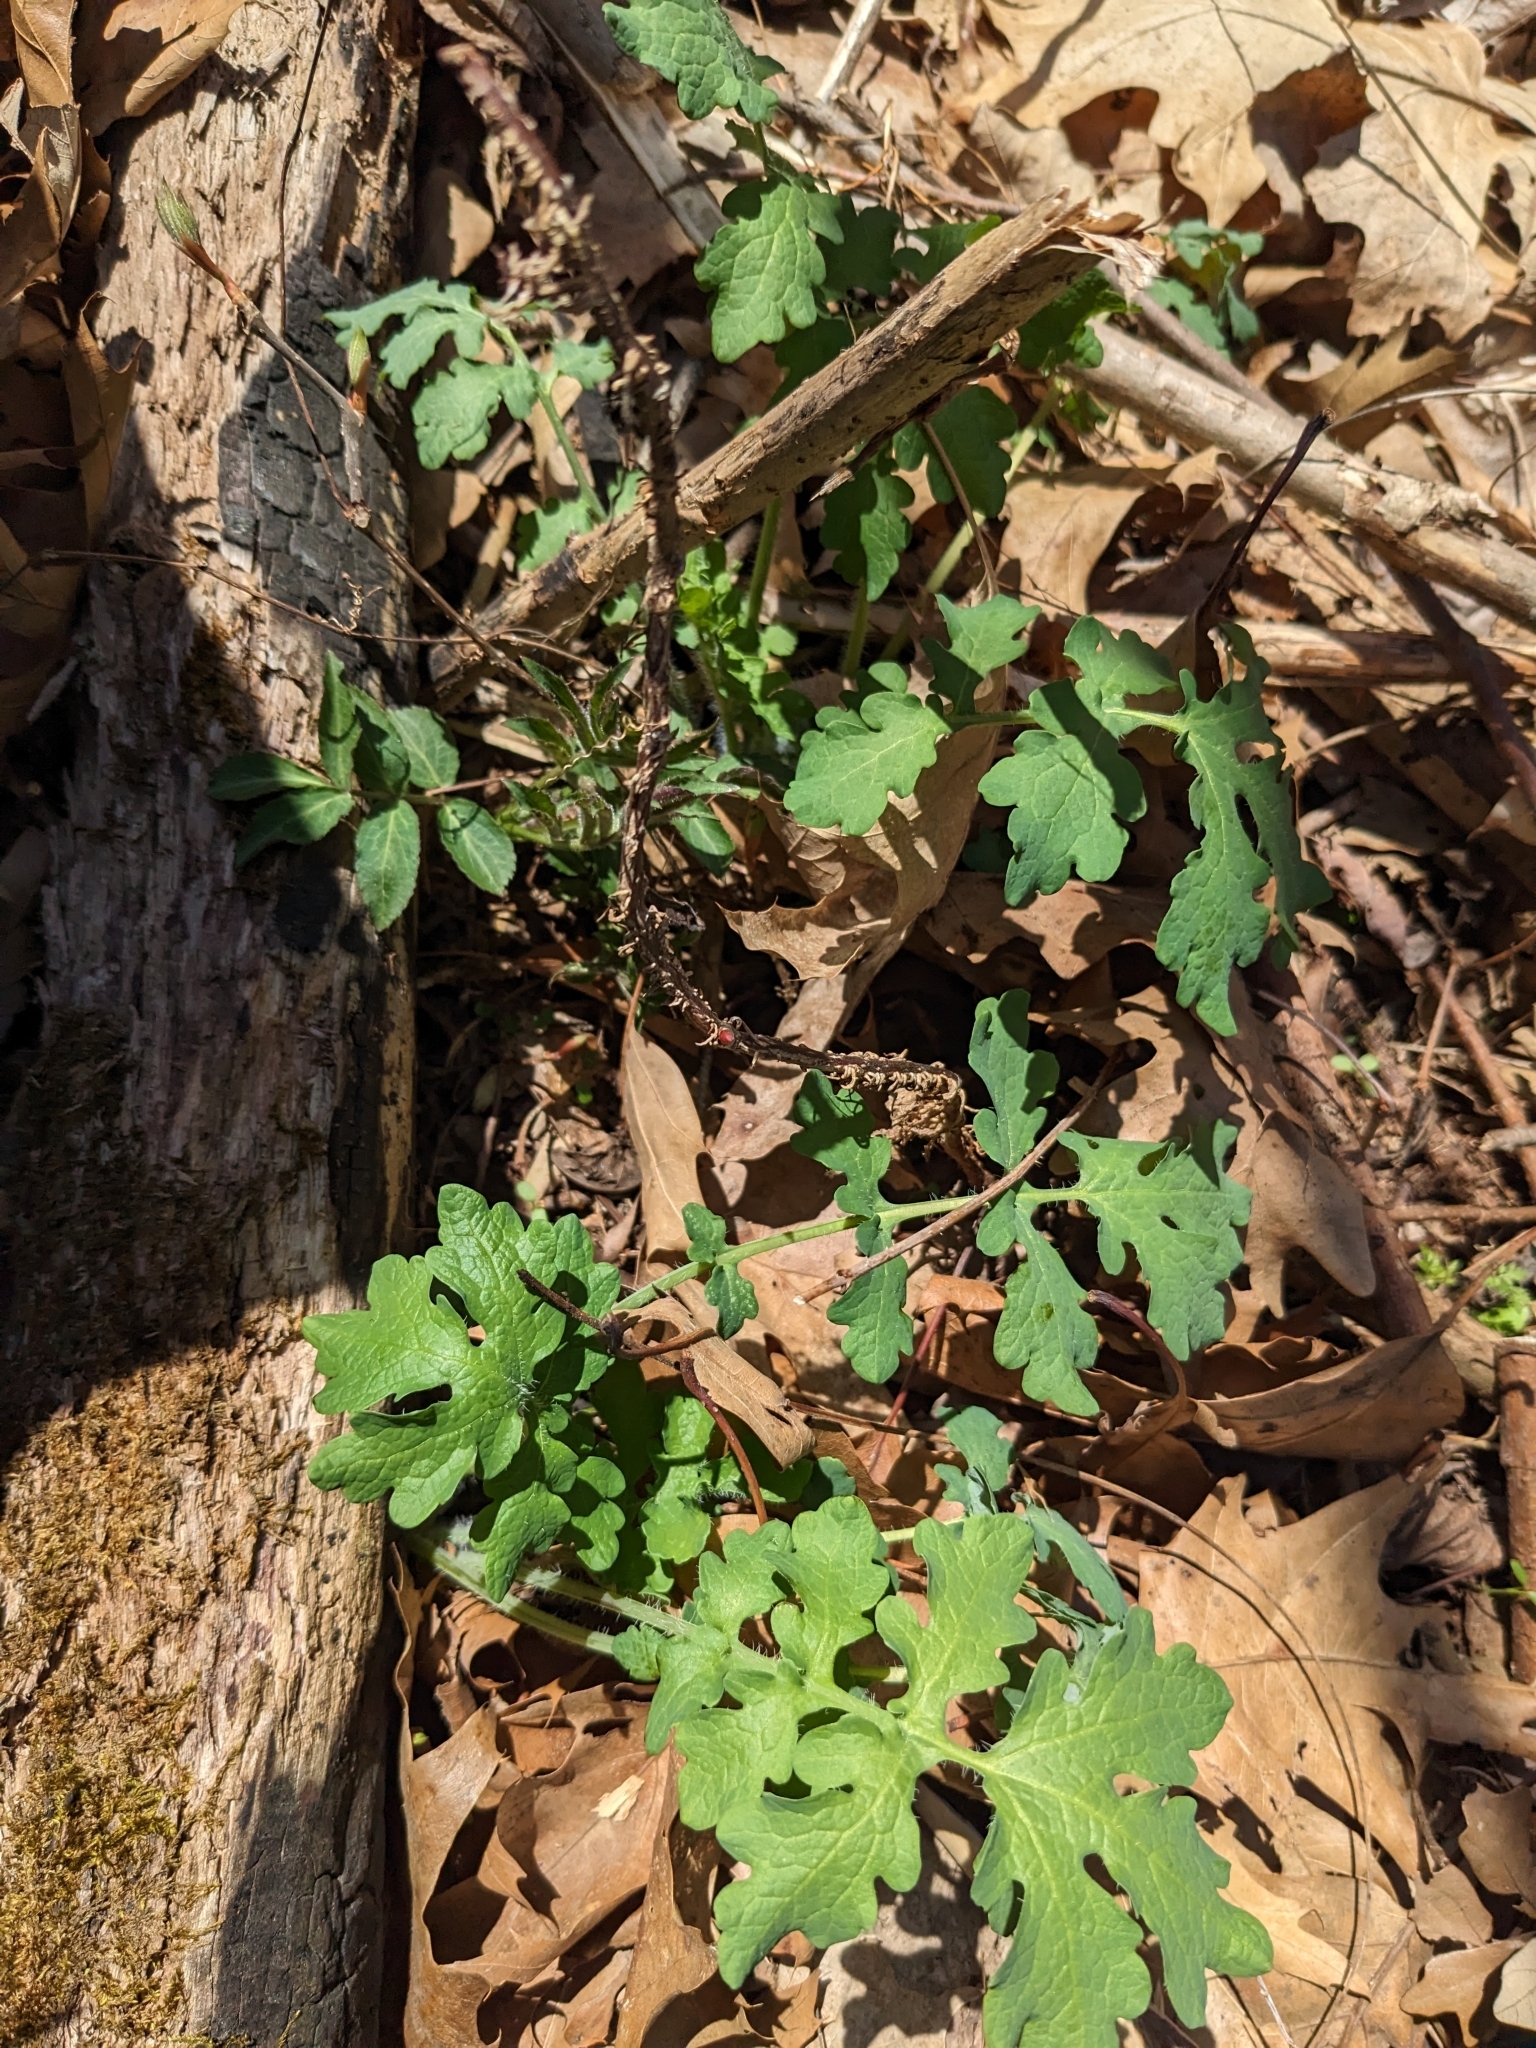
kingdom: Plantae
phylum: Tracheophyta
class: Magnoliopsida
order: Ranunculales
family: Papaveraceae
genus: Stylophorum
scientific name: Stylophorum diphyllum
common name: Celandine poppy
